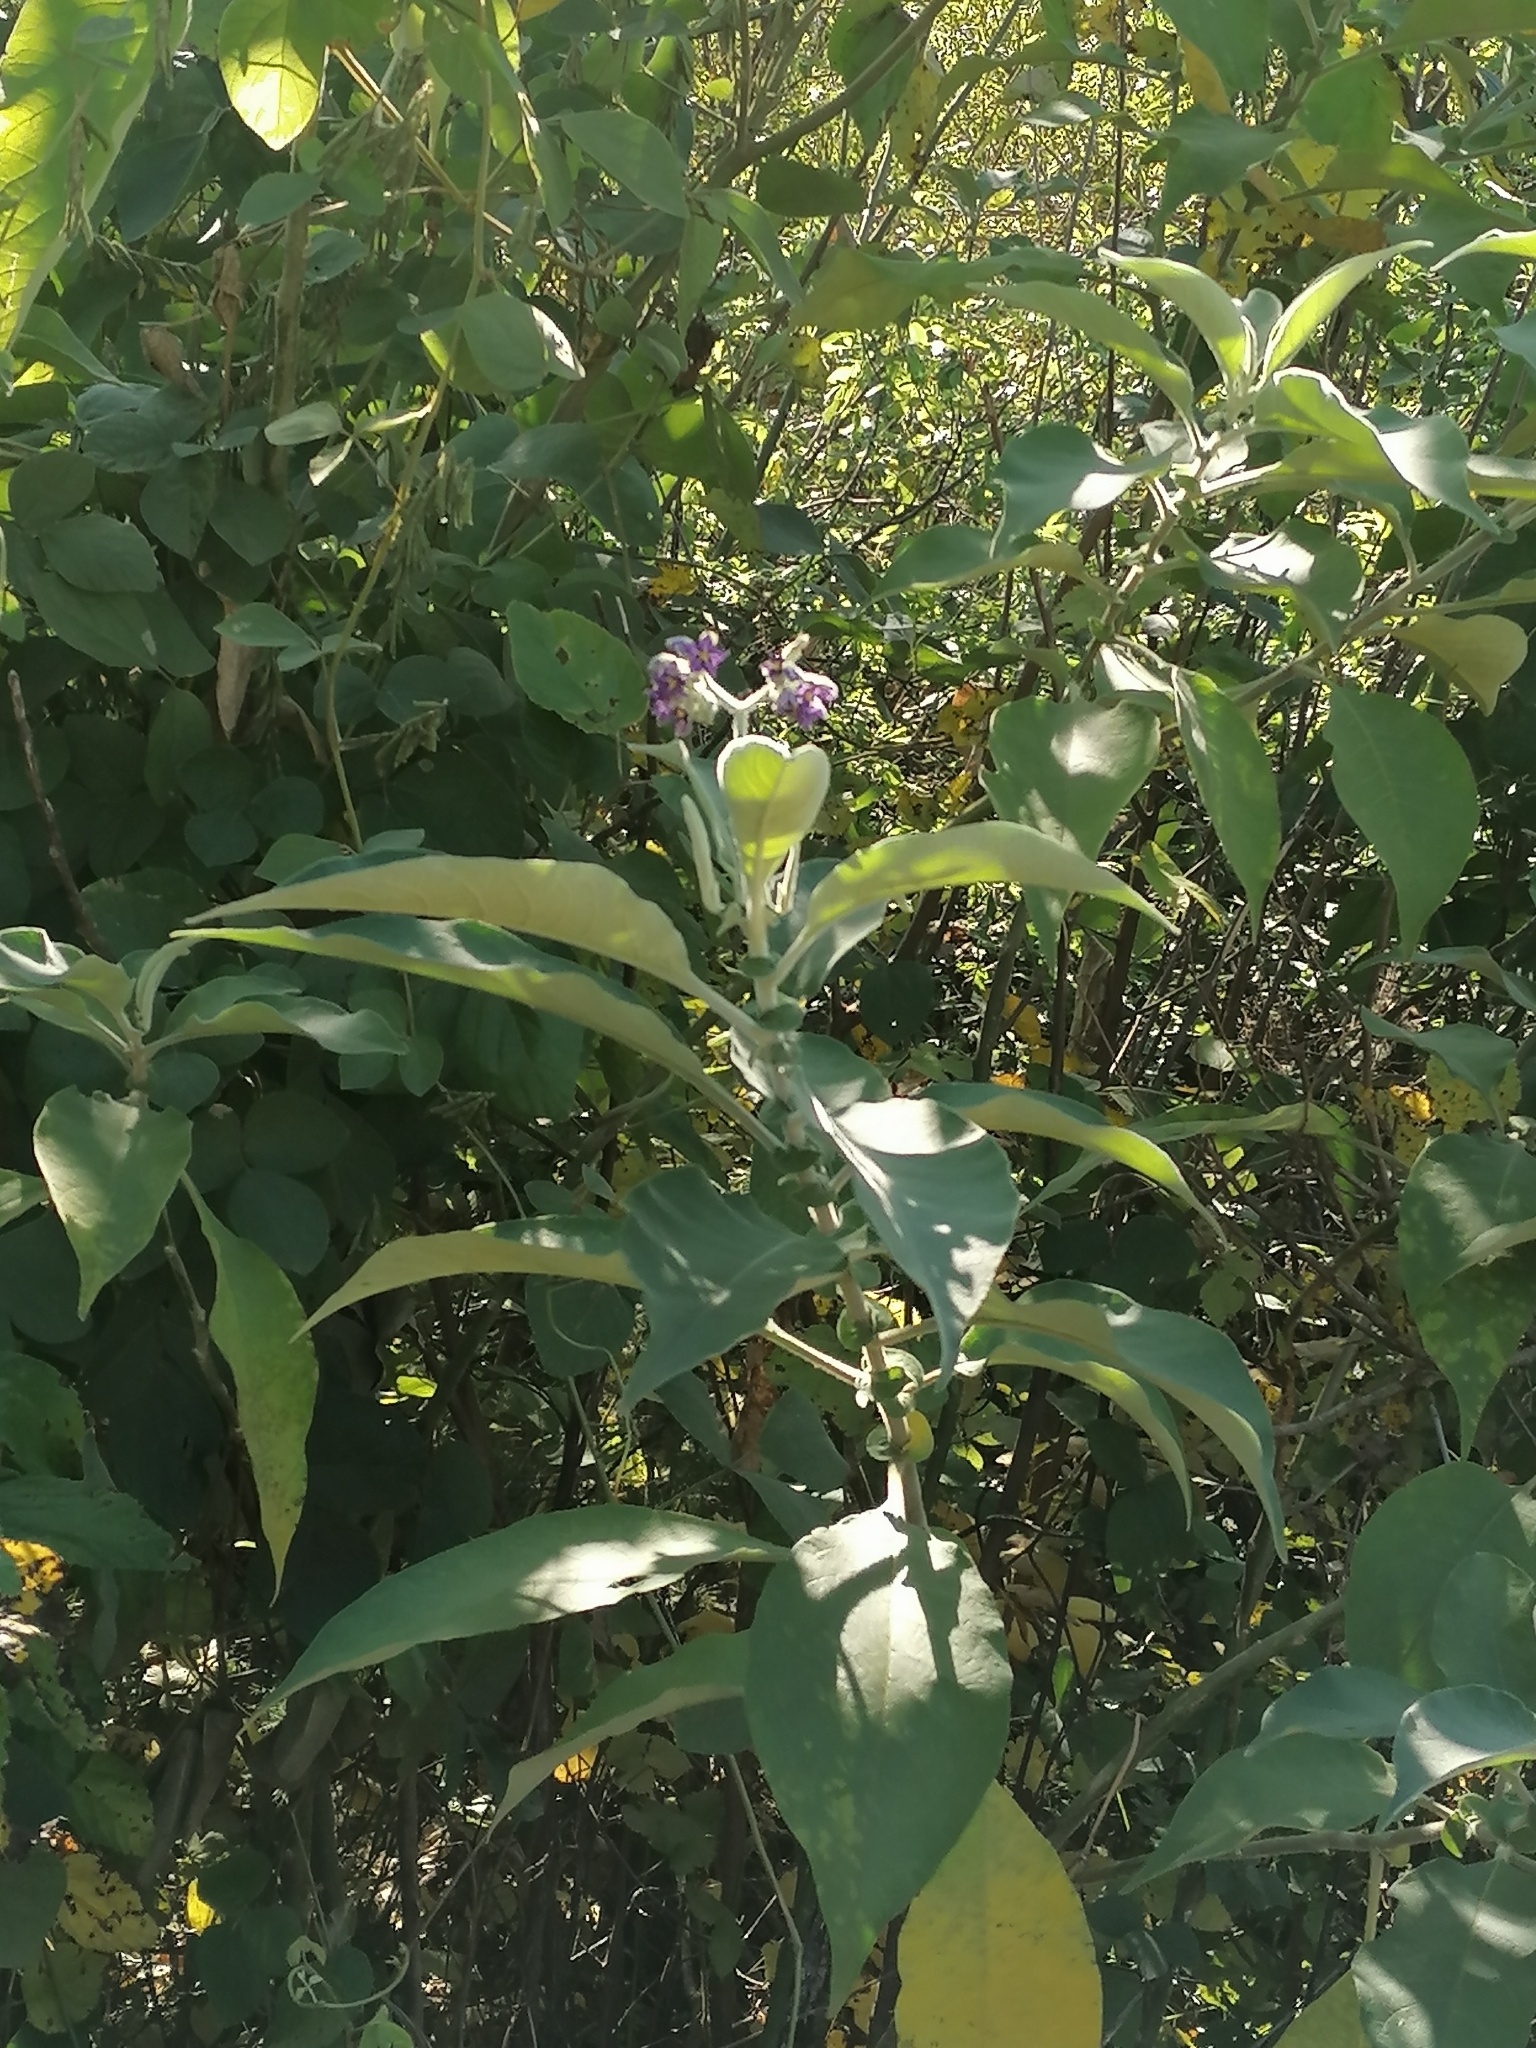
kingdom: Plantae
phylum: Tracheophyta
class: Magnoliopsida
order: Solanales
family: Solanaceae
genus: Solanum
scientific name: Solanum mauritianum
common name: Earleaf nightshade
